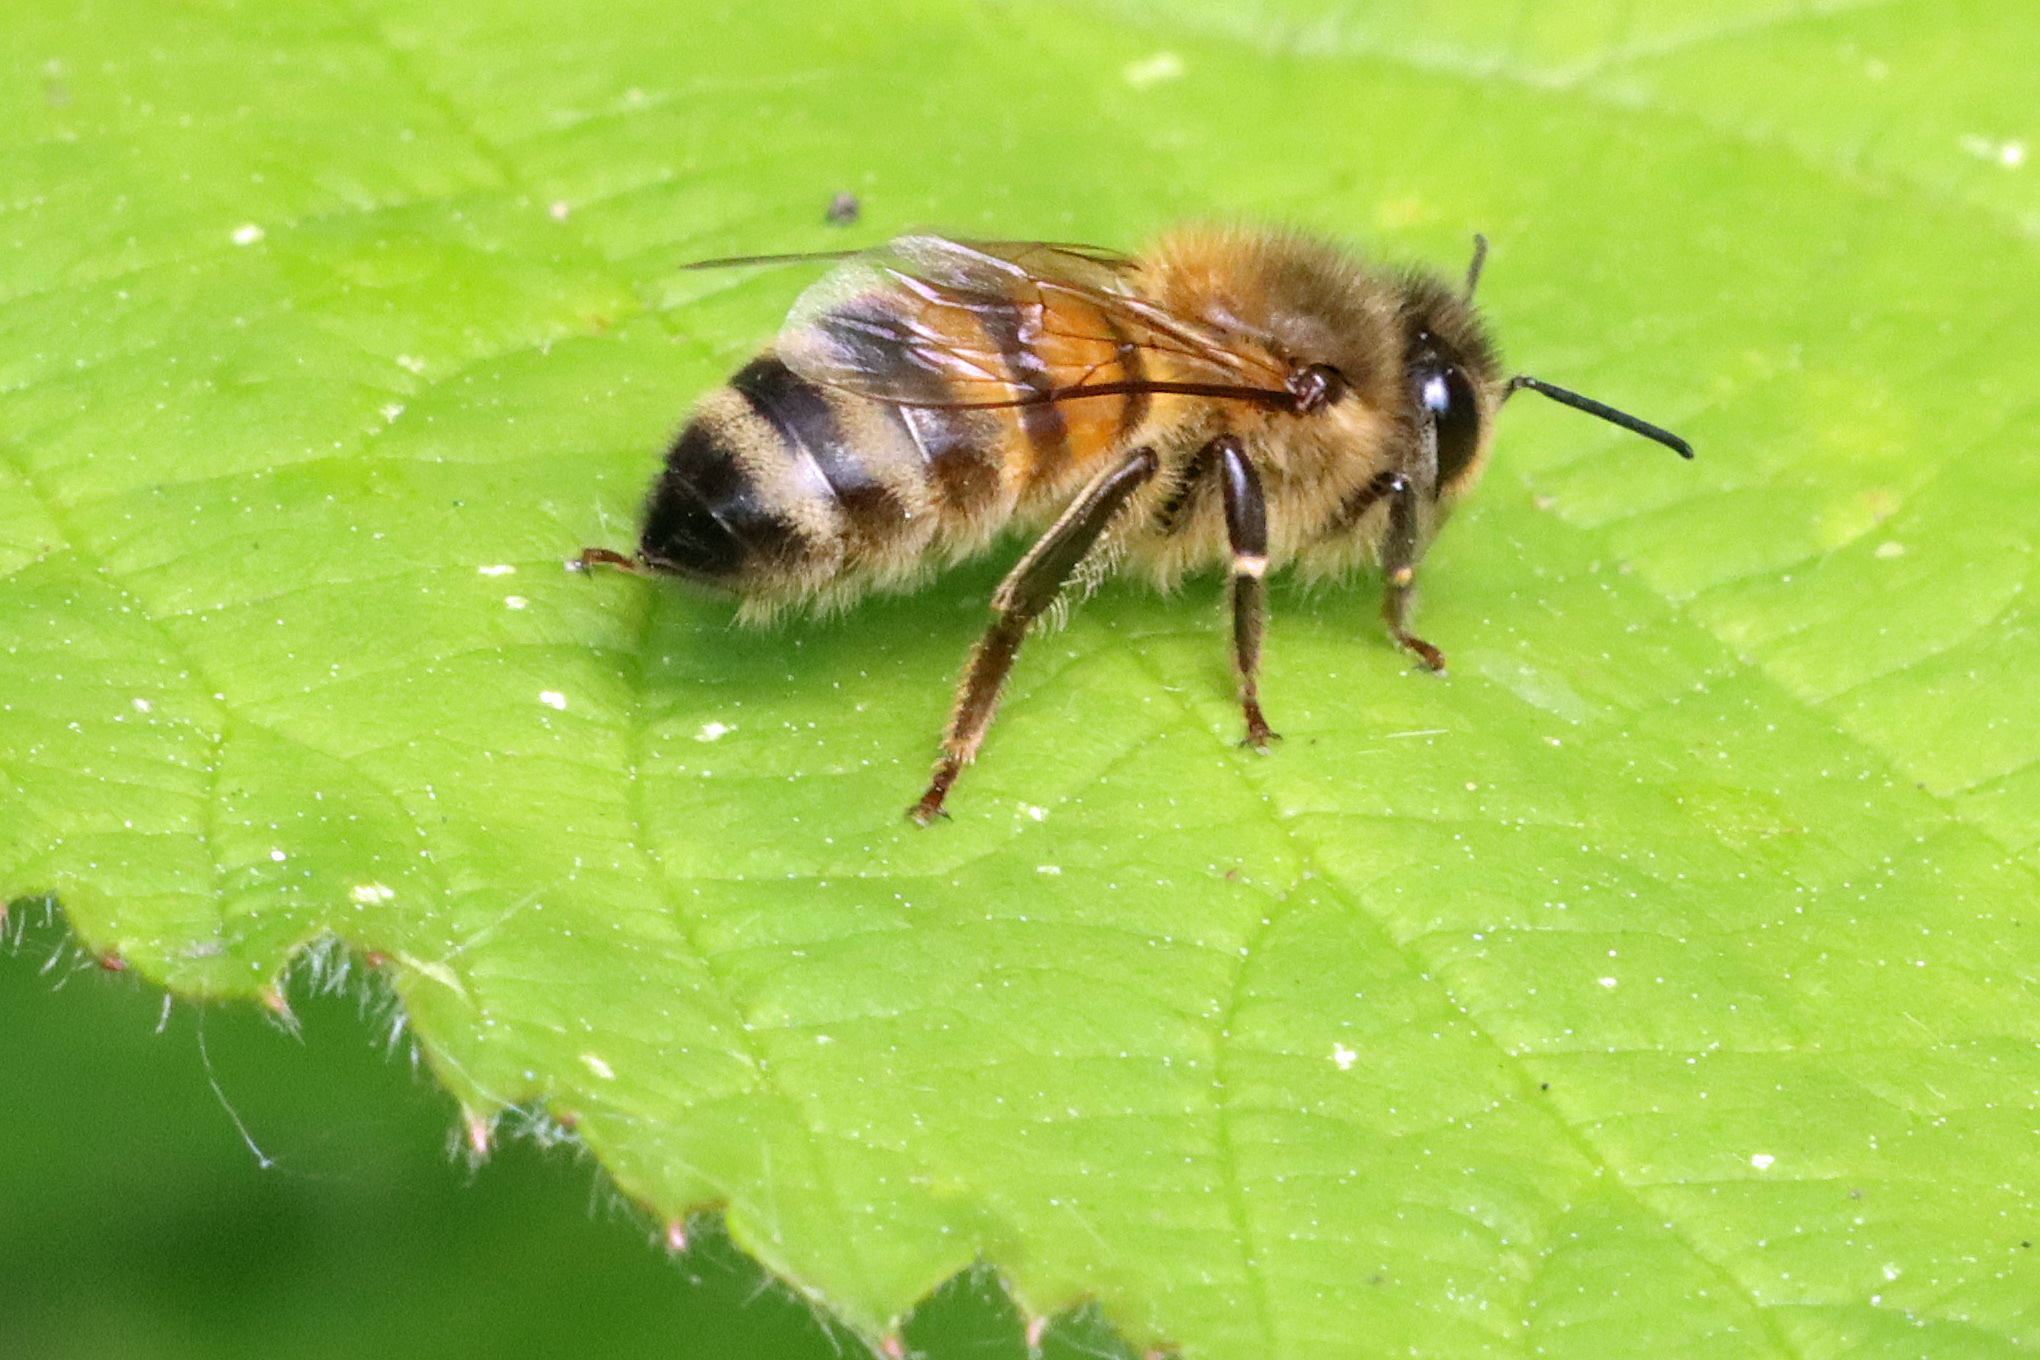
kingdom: Animalia
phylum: Arthropoda
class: Insecta
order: Hymenoptera
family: Apidae
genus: Apis
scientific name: Apis mellifera
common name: Honey bee
